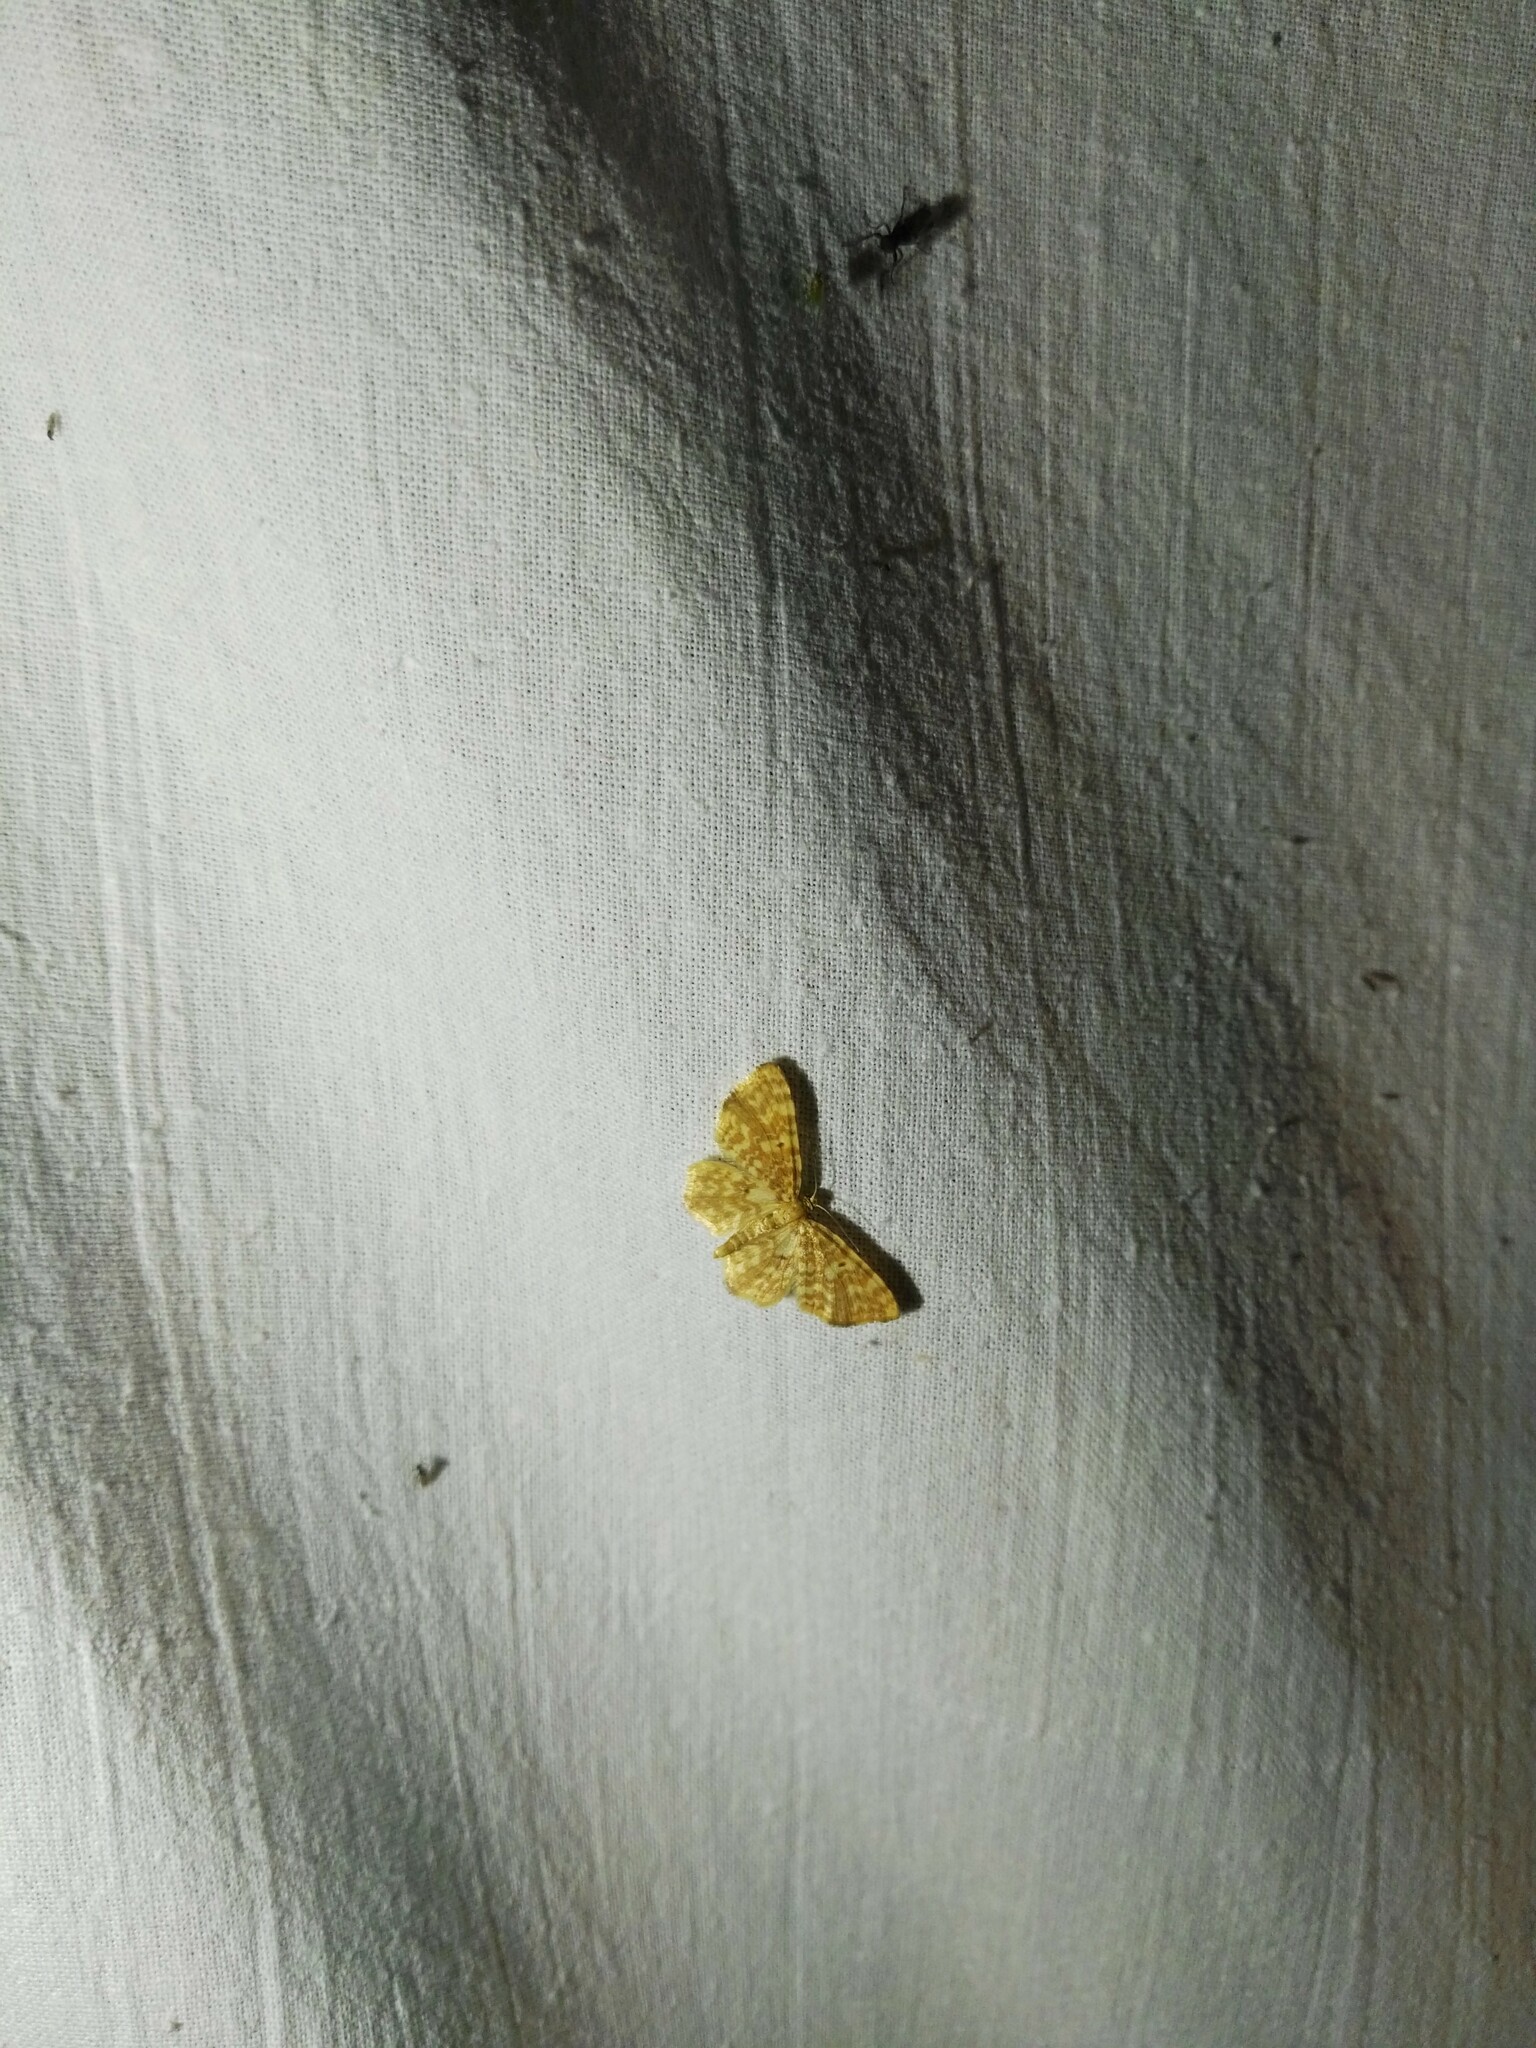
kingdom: Animalia
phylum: Arthropoda
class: Insecta
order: Lepidoptera
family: Geometridae
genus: Hydrelia
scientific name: Hydrelia flammeolaria
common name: Small yellow wave
